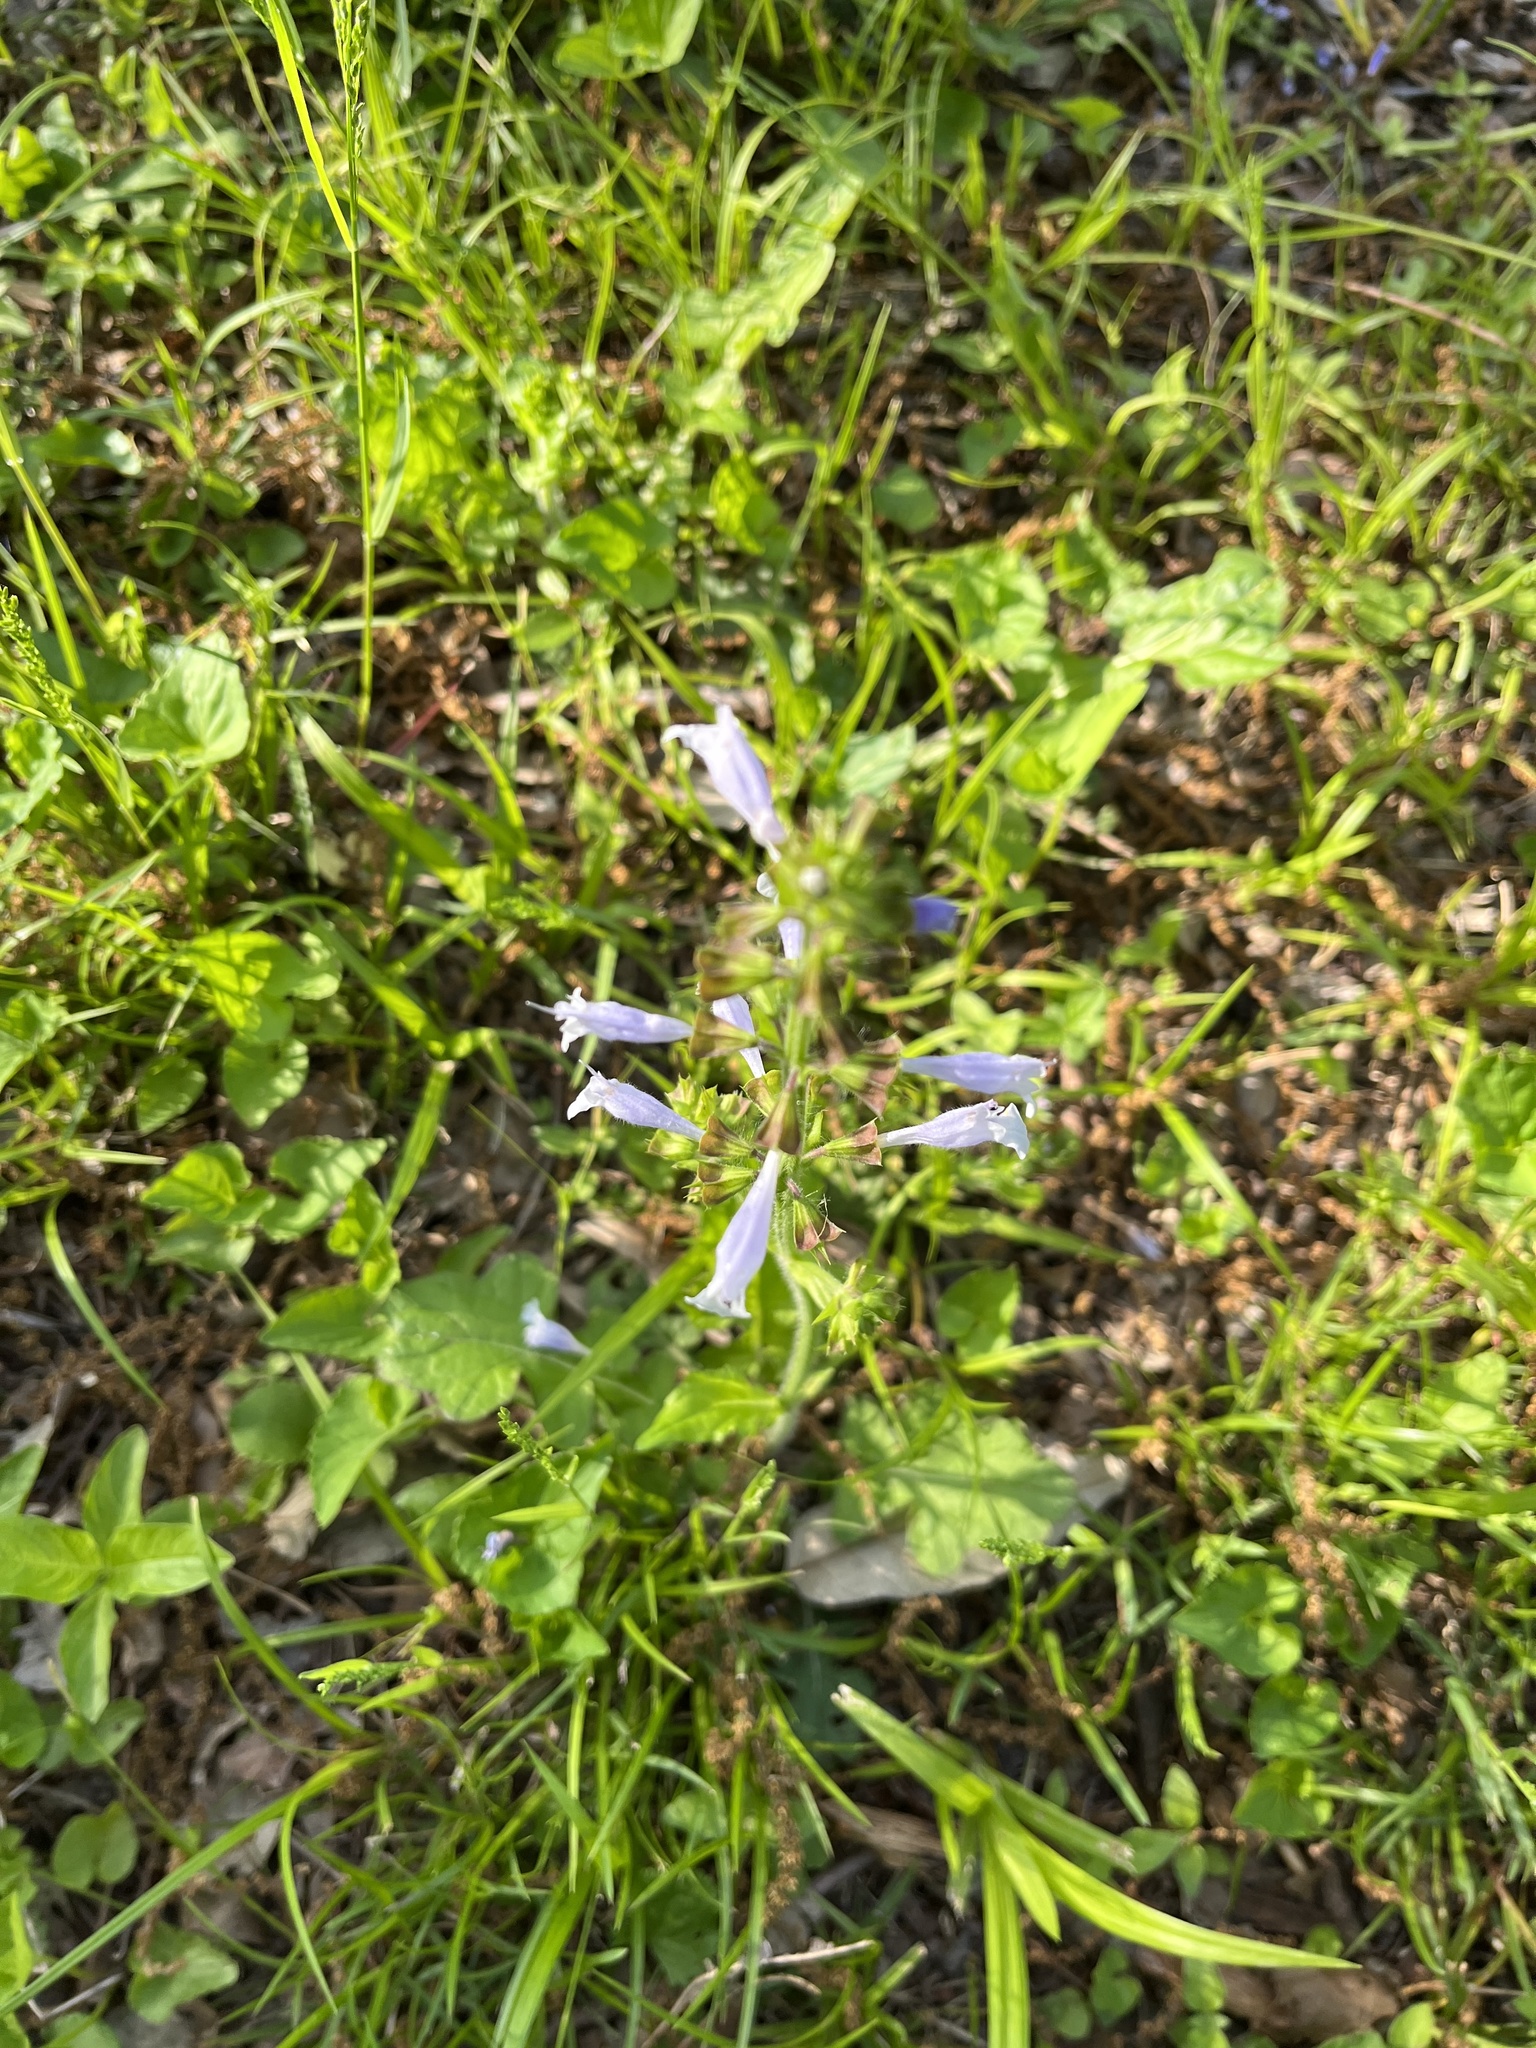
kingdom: Plantae
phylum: Tracheophyta
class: Magnoliopsida
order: Lamiales
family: Lamiaceae
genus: Salvia
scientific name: Salvia lyrata
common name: Cancerweed
